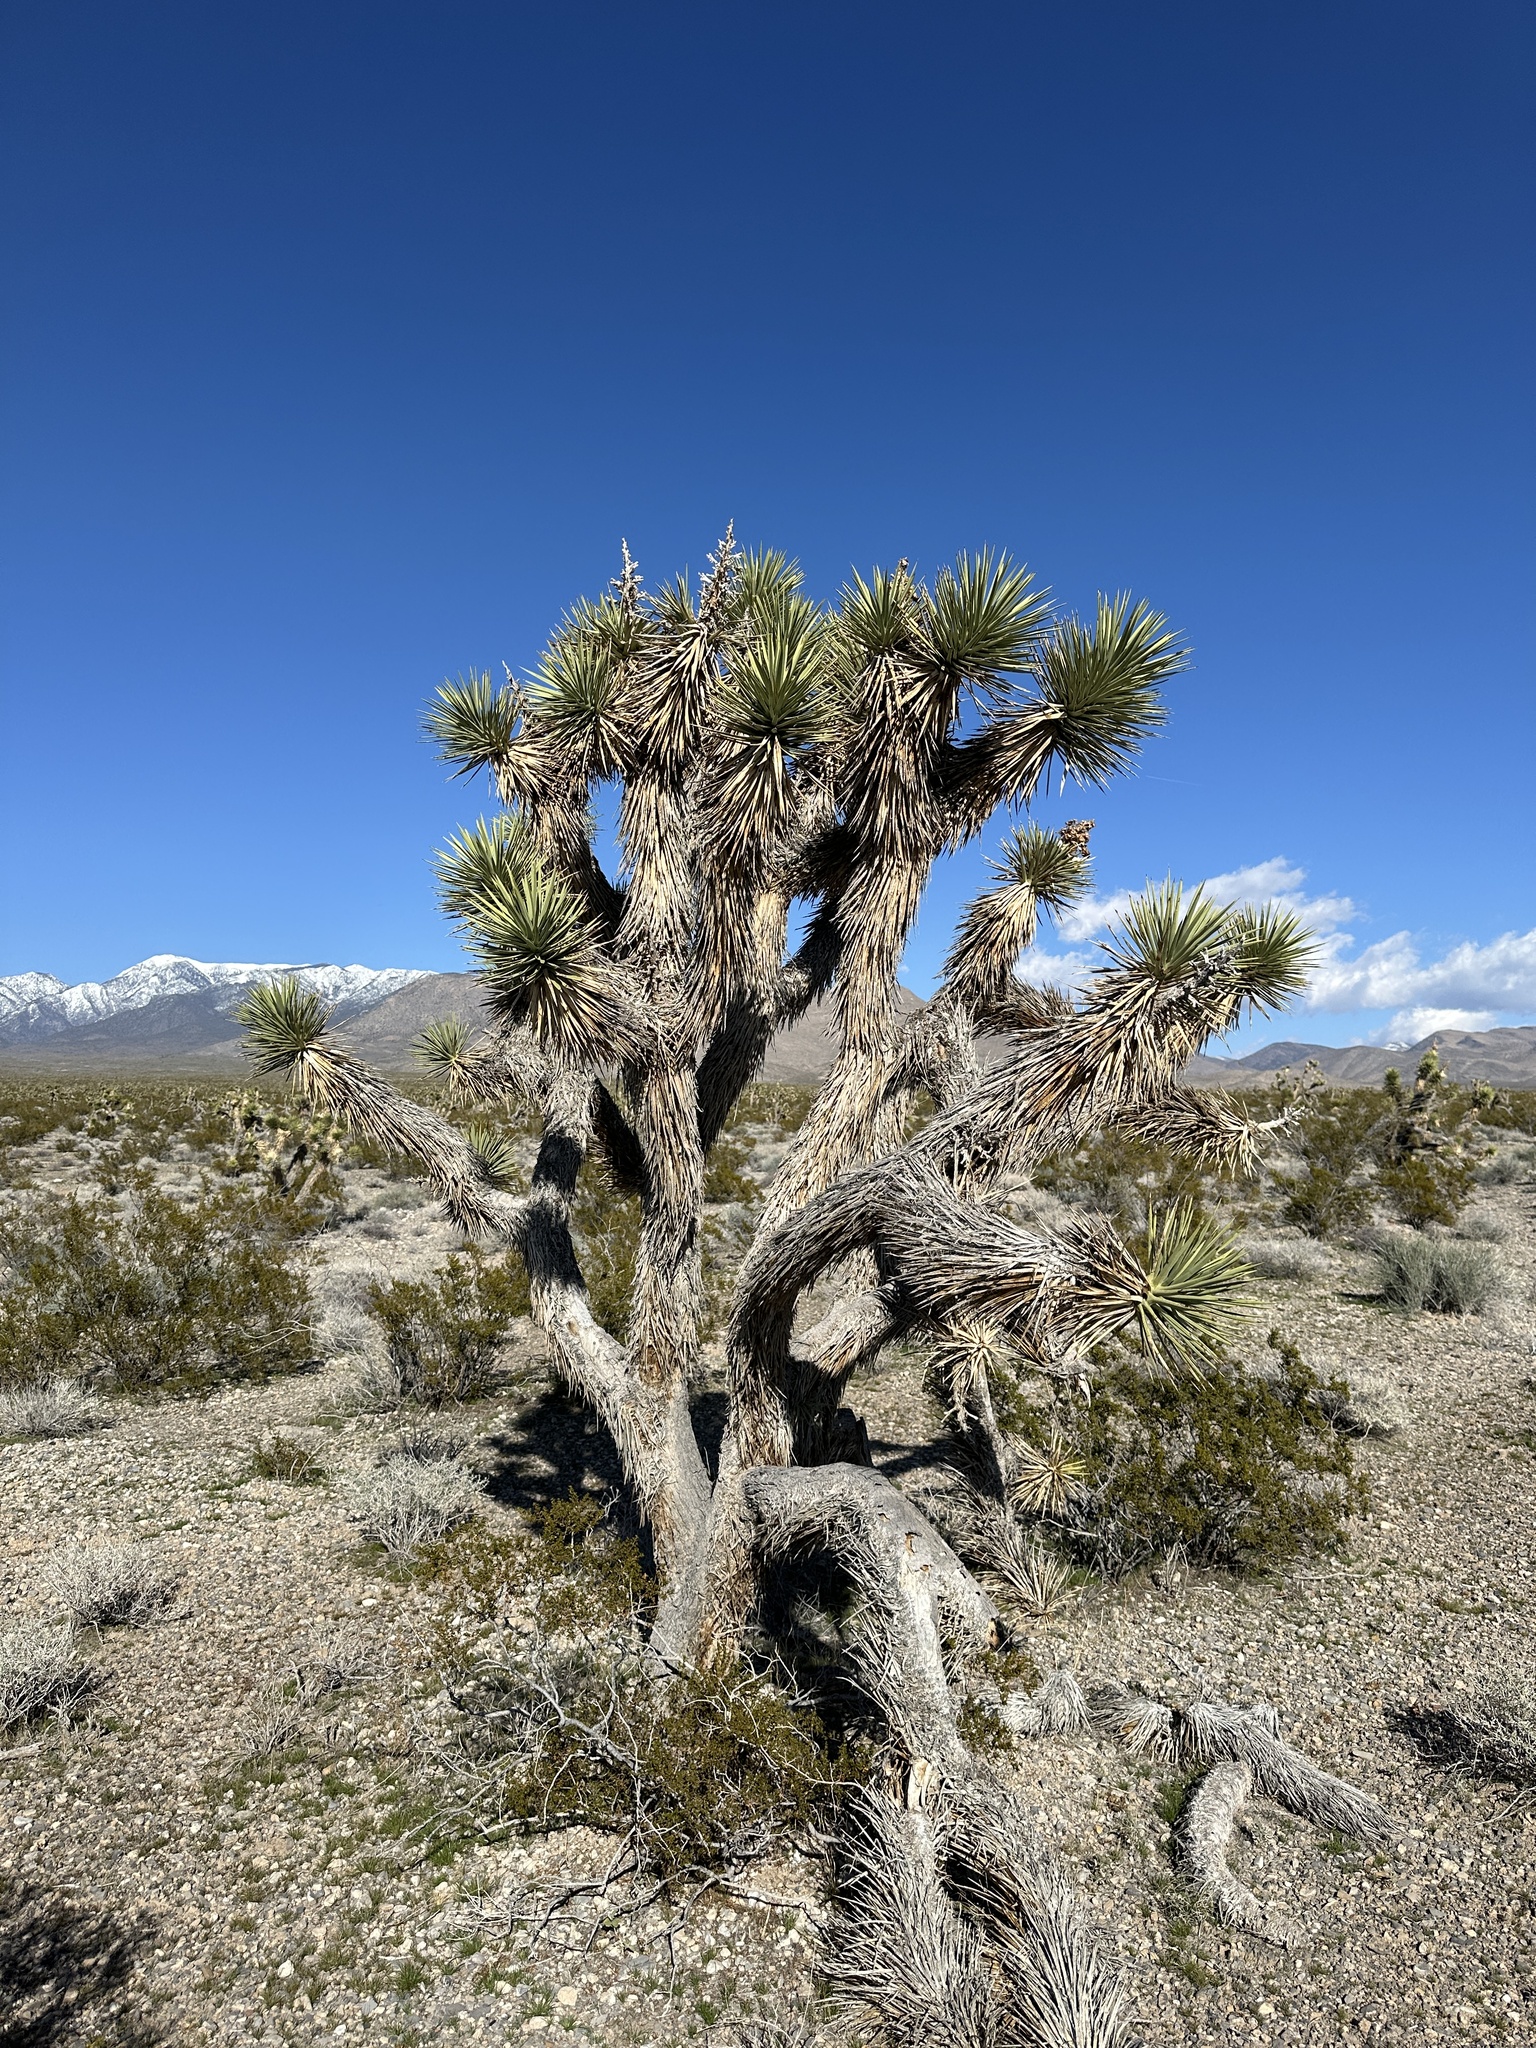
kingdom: Plantae
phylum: Tracheophyta
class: Liliopsida
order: Asparagales
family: Asparagaceae
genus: Yucca
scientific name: Yucca brevifolia
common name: Joshua tree
